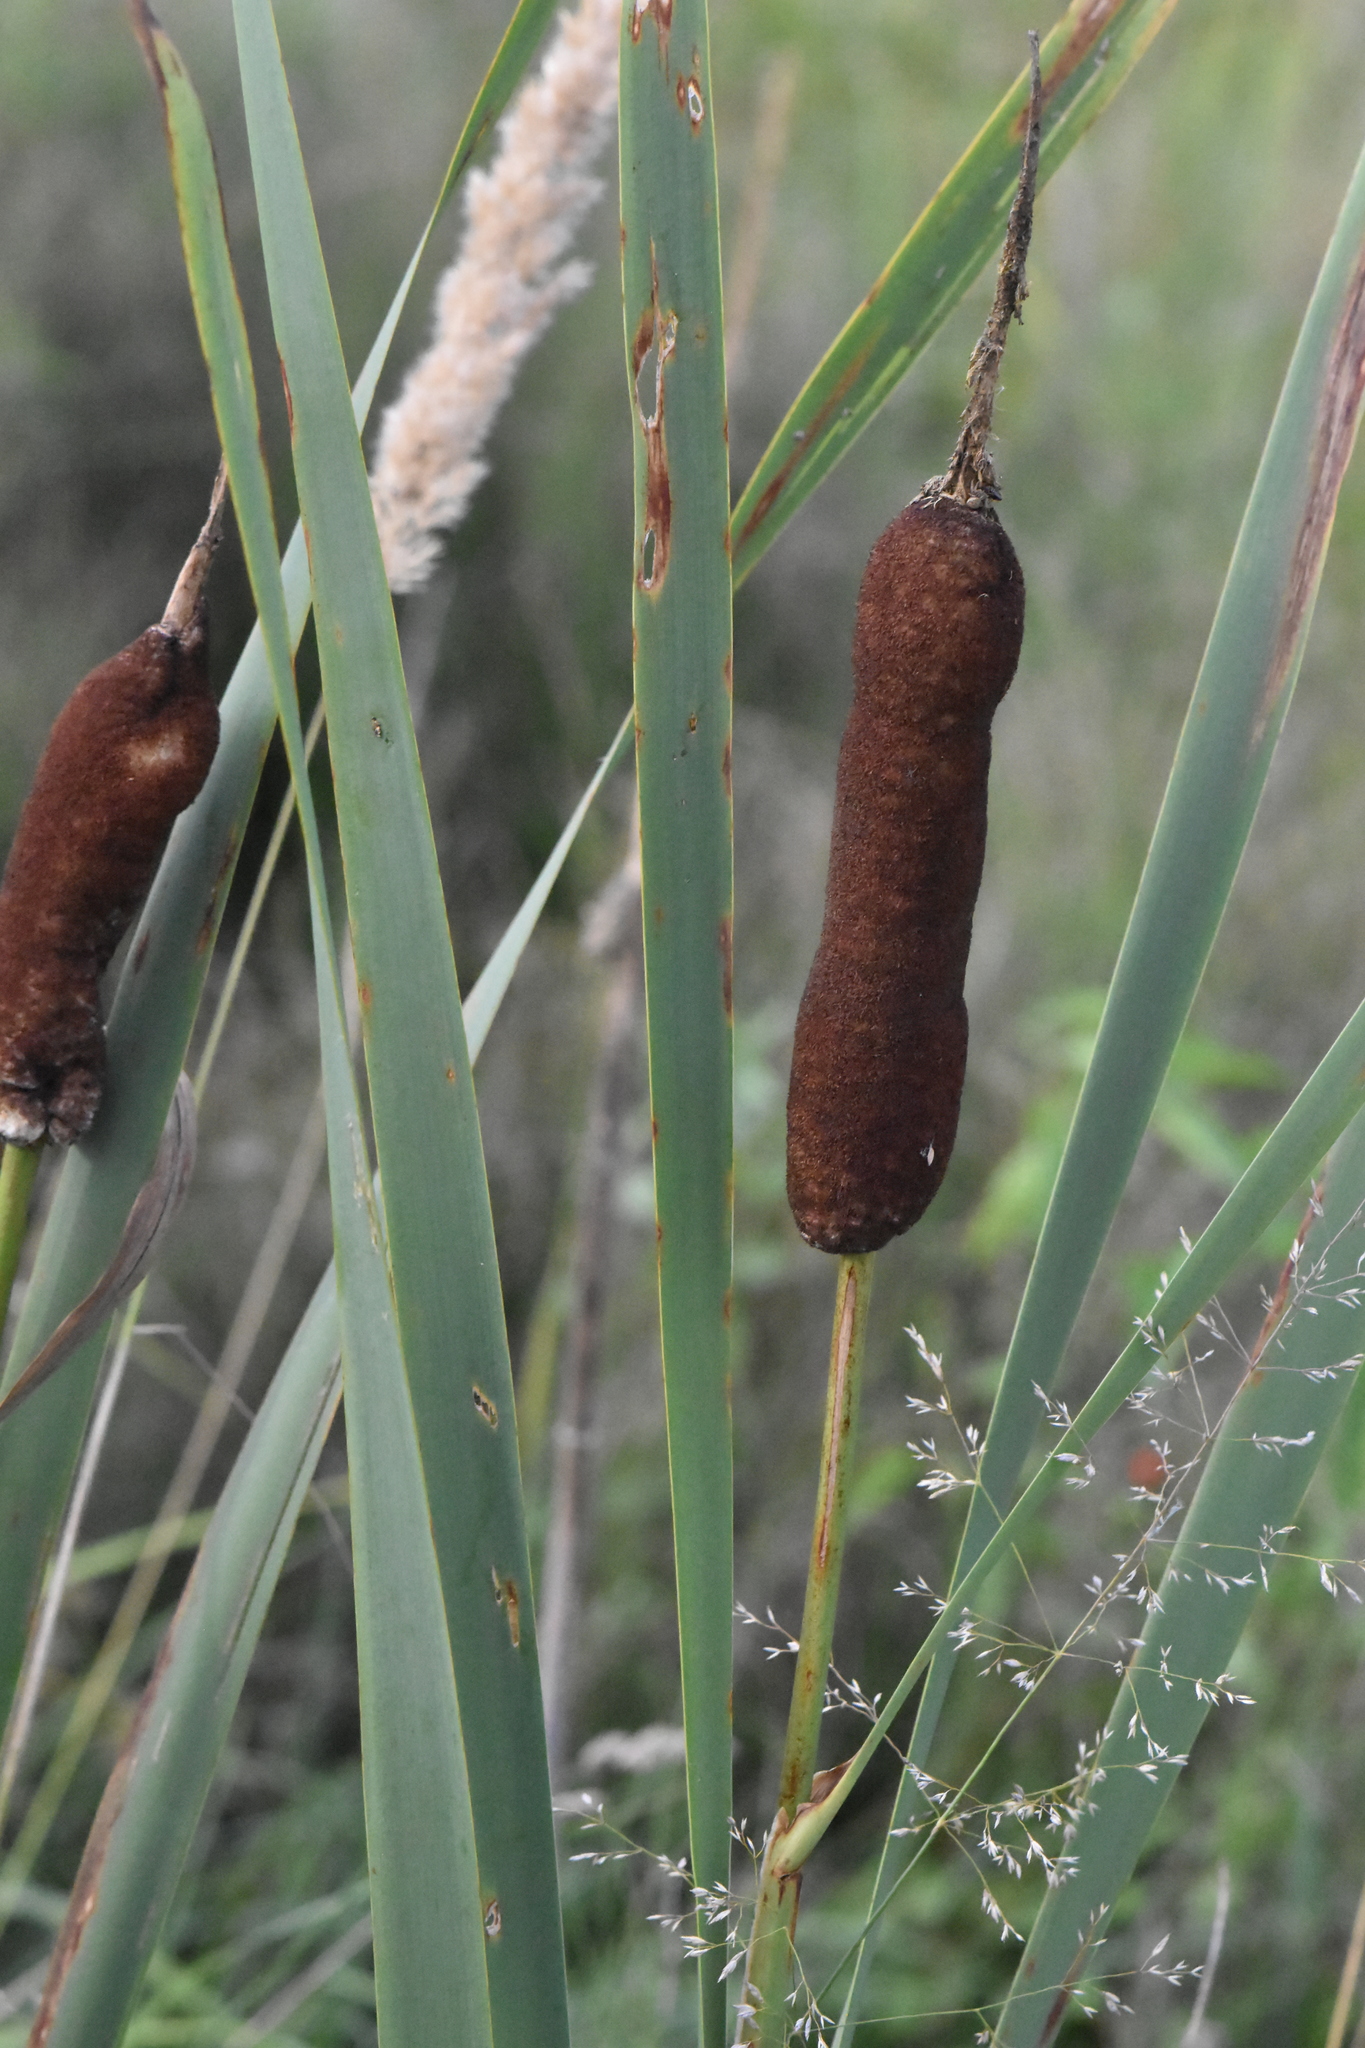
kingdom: Plantae
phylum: Tracheophyta
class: Liliopsida
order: Poales
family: Typhaceae
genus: Typha
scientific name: Typha latifolia
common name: Broadleaf cattail
